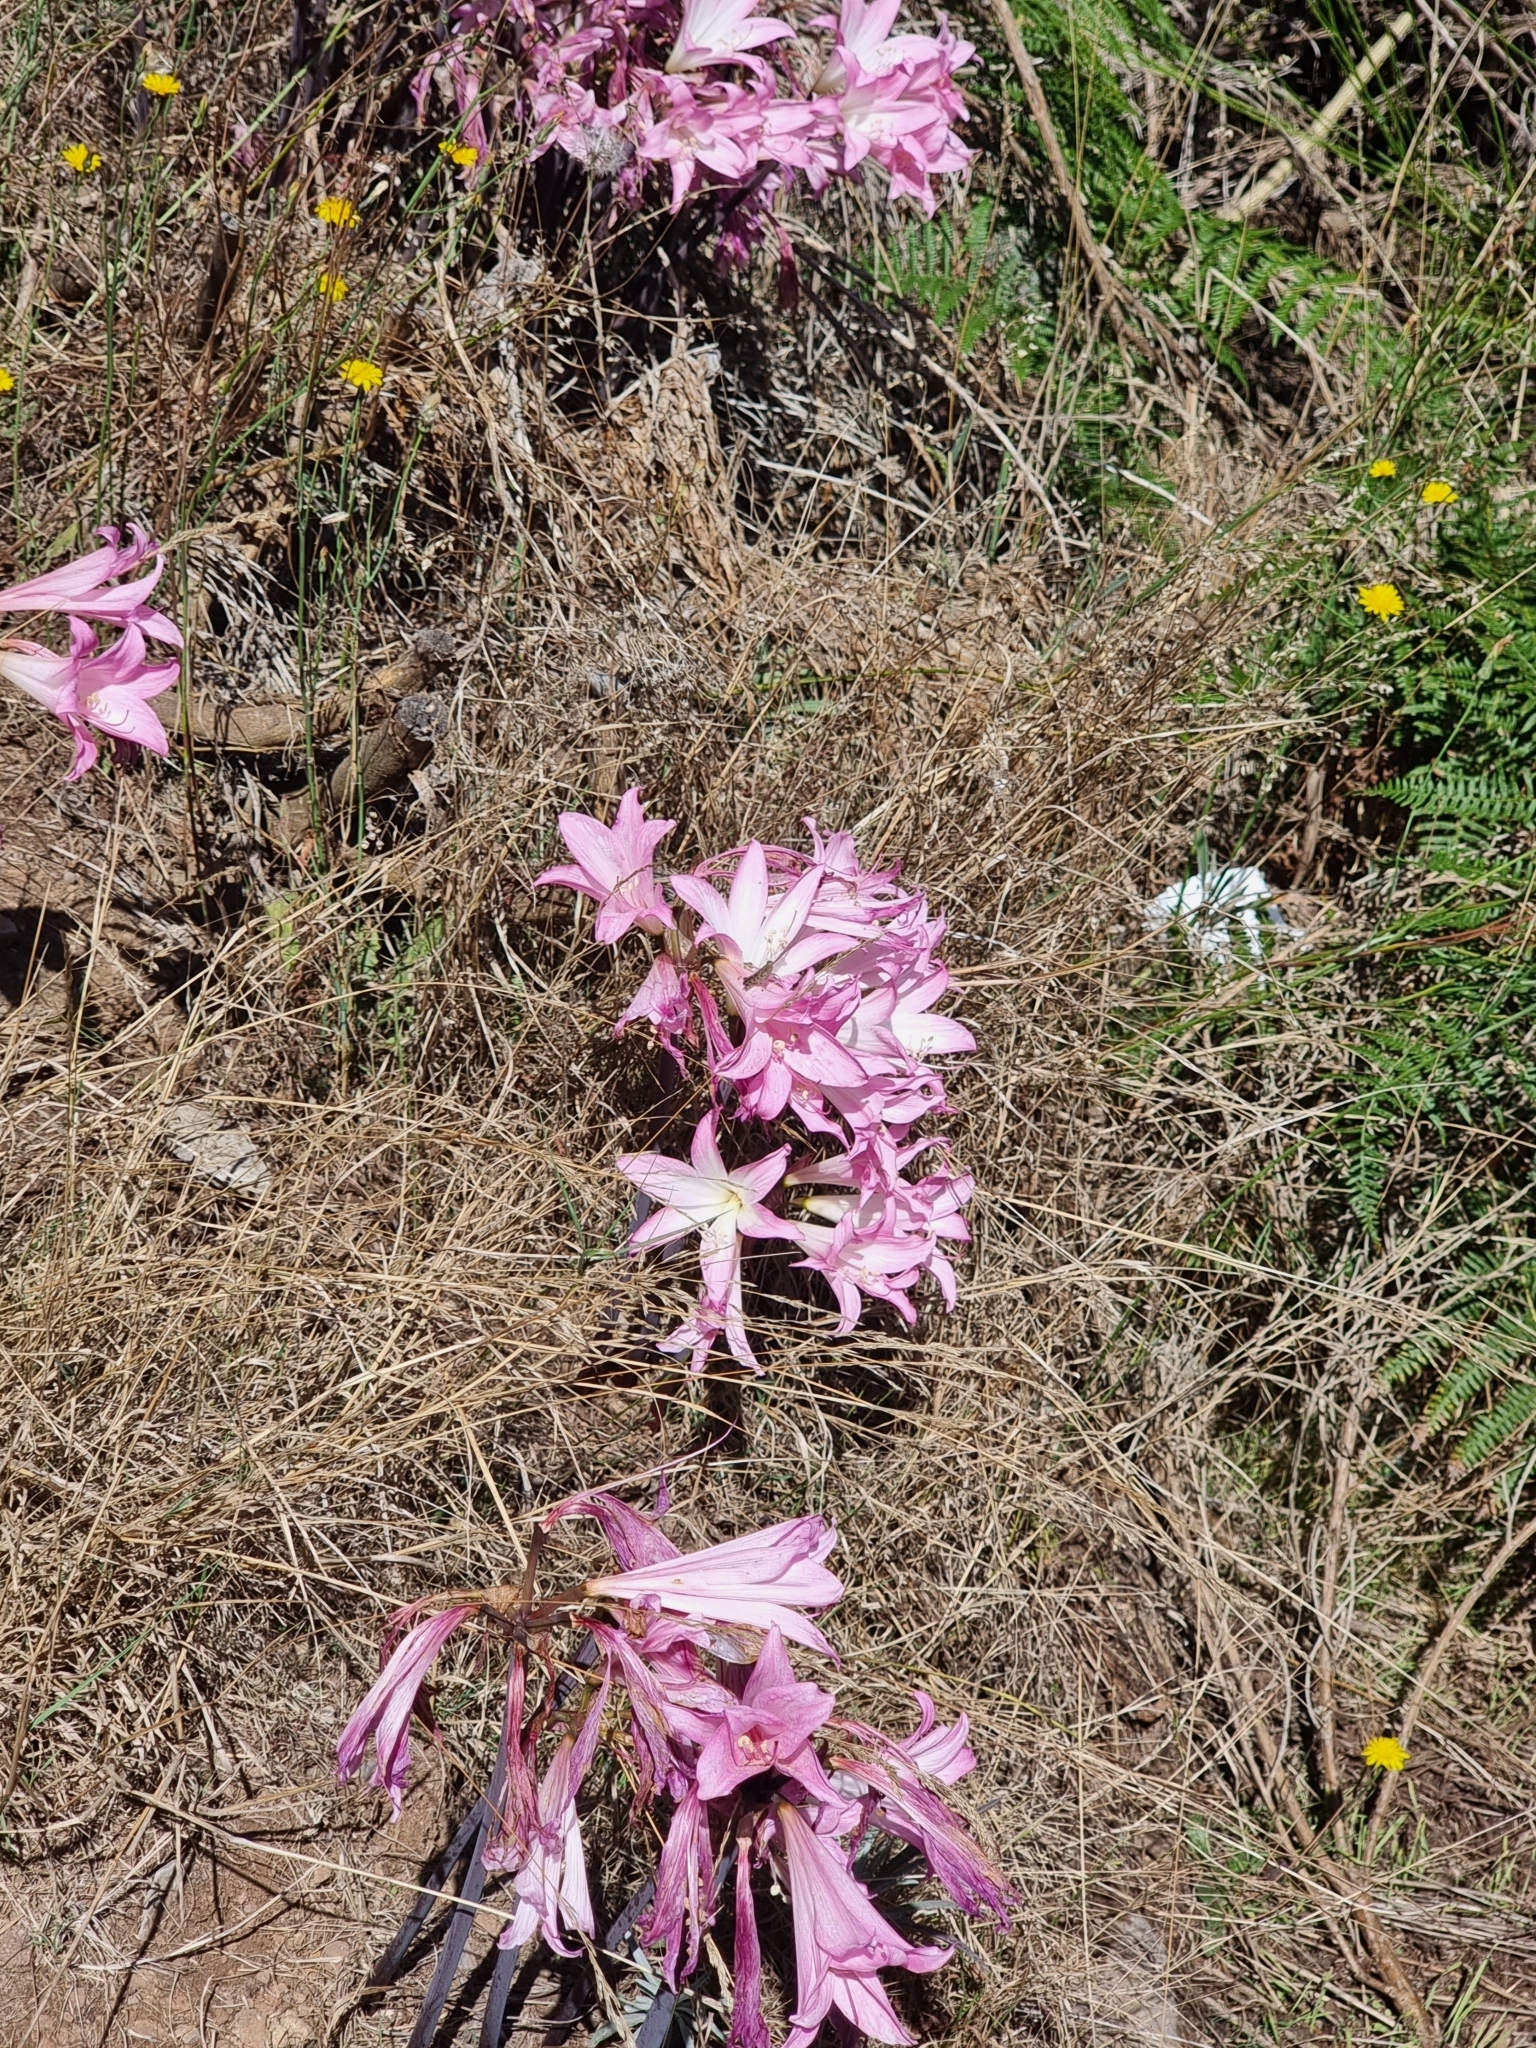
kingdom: Plantae
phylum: Tracheophyta
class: Liliopsida
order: Asparagales
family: Amaryllidaceae
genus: Amaryllis
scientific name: Amaryllis belladonna
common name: Jersey lily
